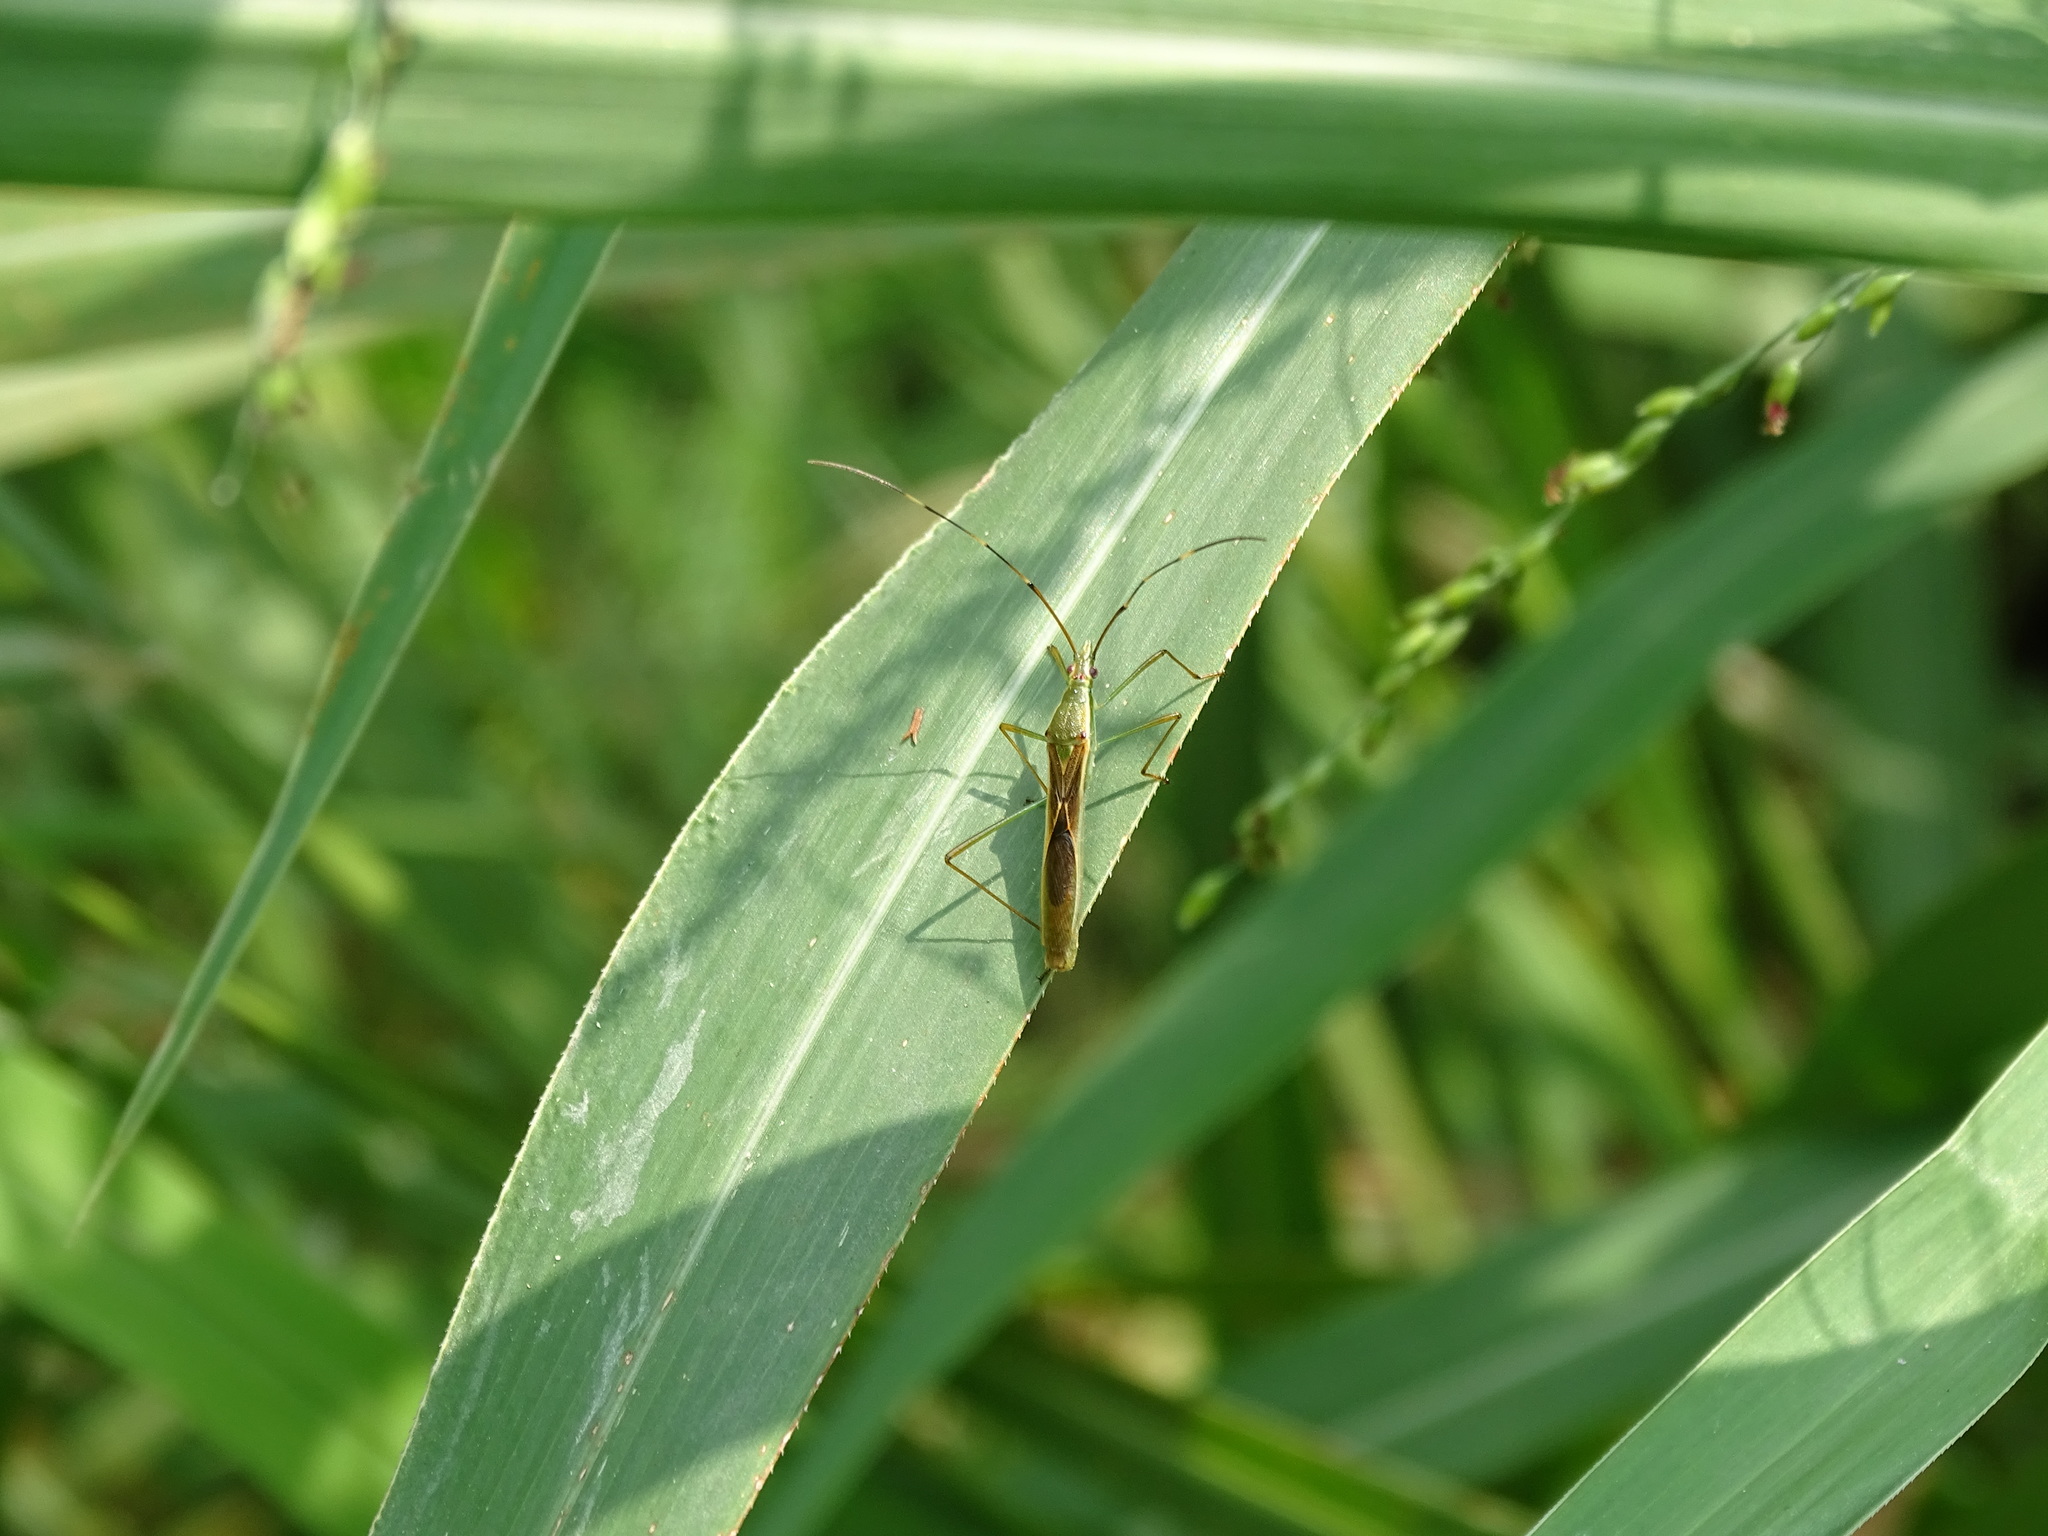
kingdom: Animalia
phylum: Arthropoda
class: Insecta
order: Hemiptera
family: Alydidae
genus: Leptocorisa
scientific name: Leptocorisa acuta
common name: Gandhi bug
